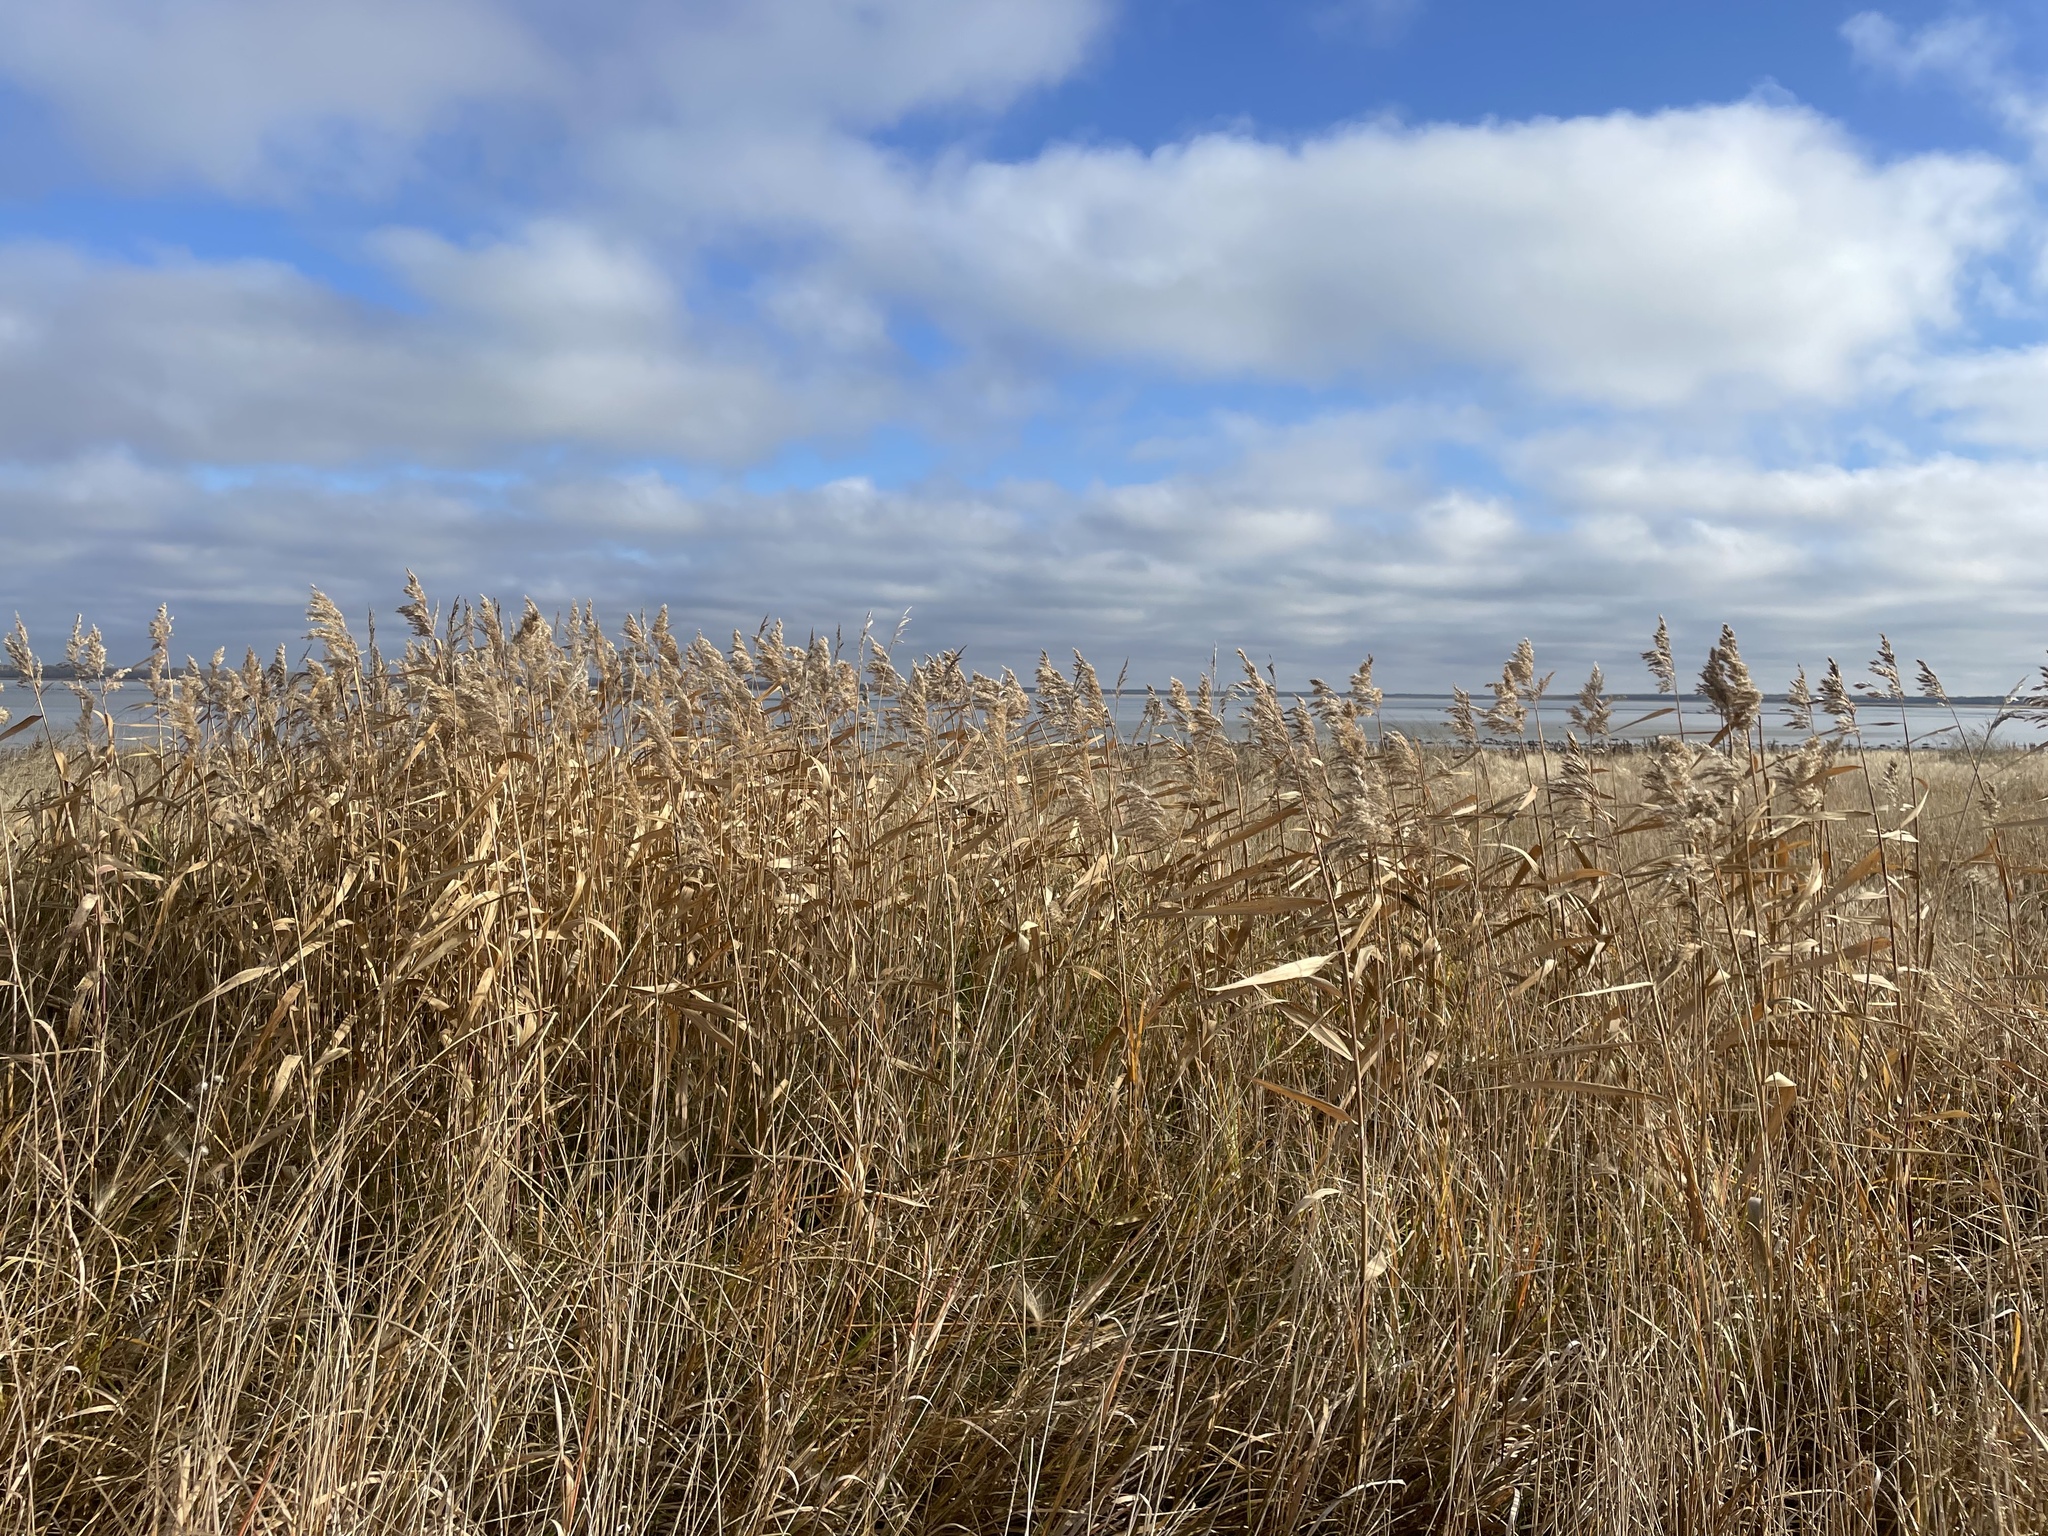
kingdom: Plantae
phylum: Tracheophyta
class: Liliopsida
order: Poales
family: Poaceae
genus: Phragmites
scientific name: Phragmites australis
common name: Common reed
